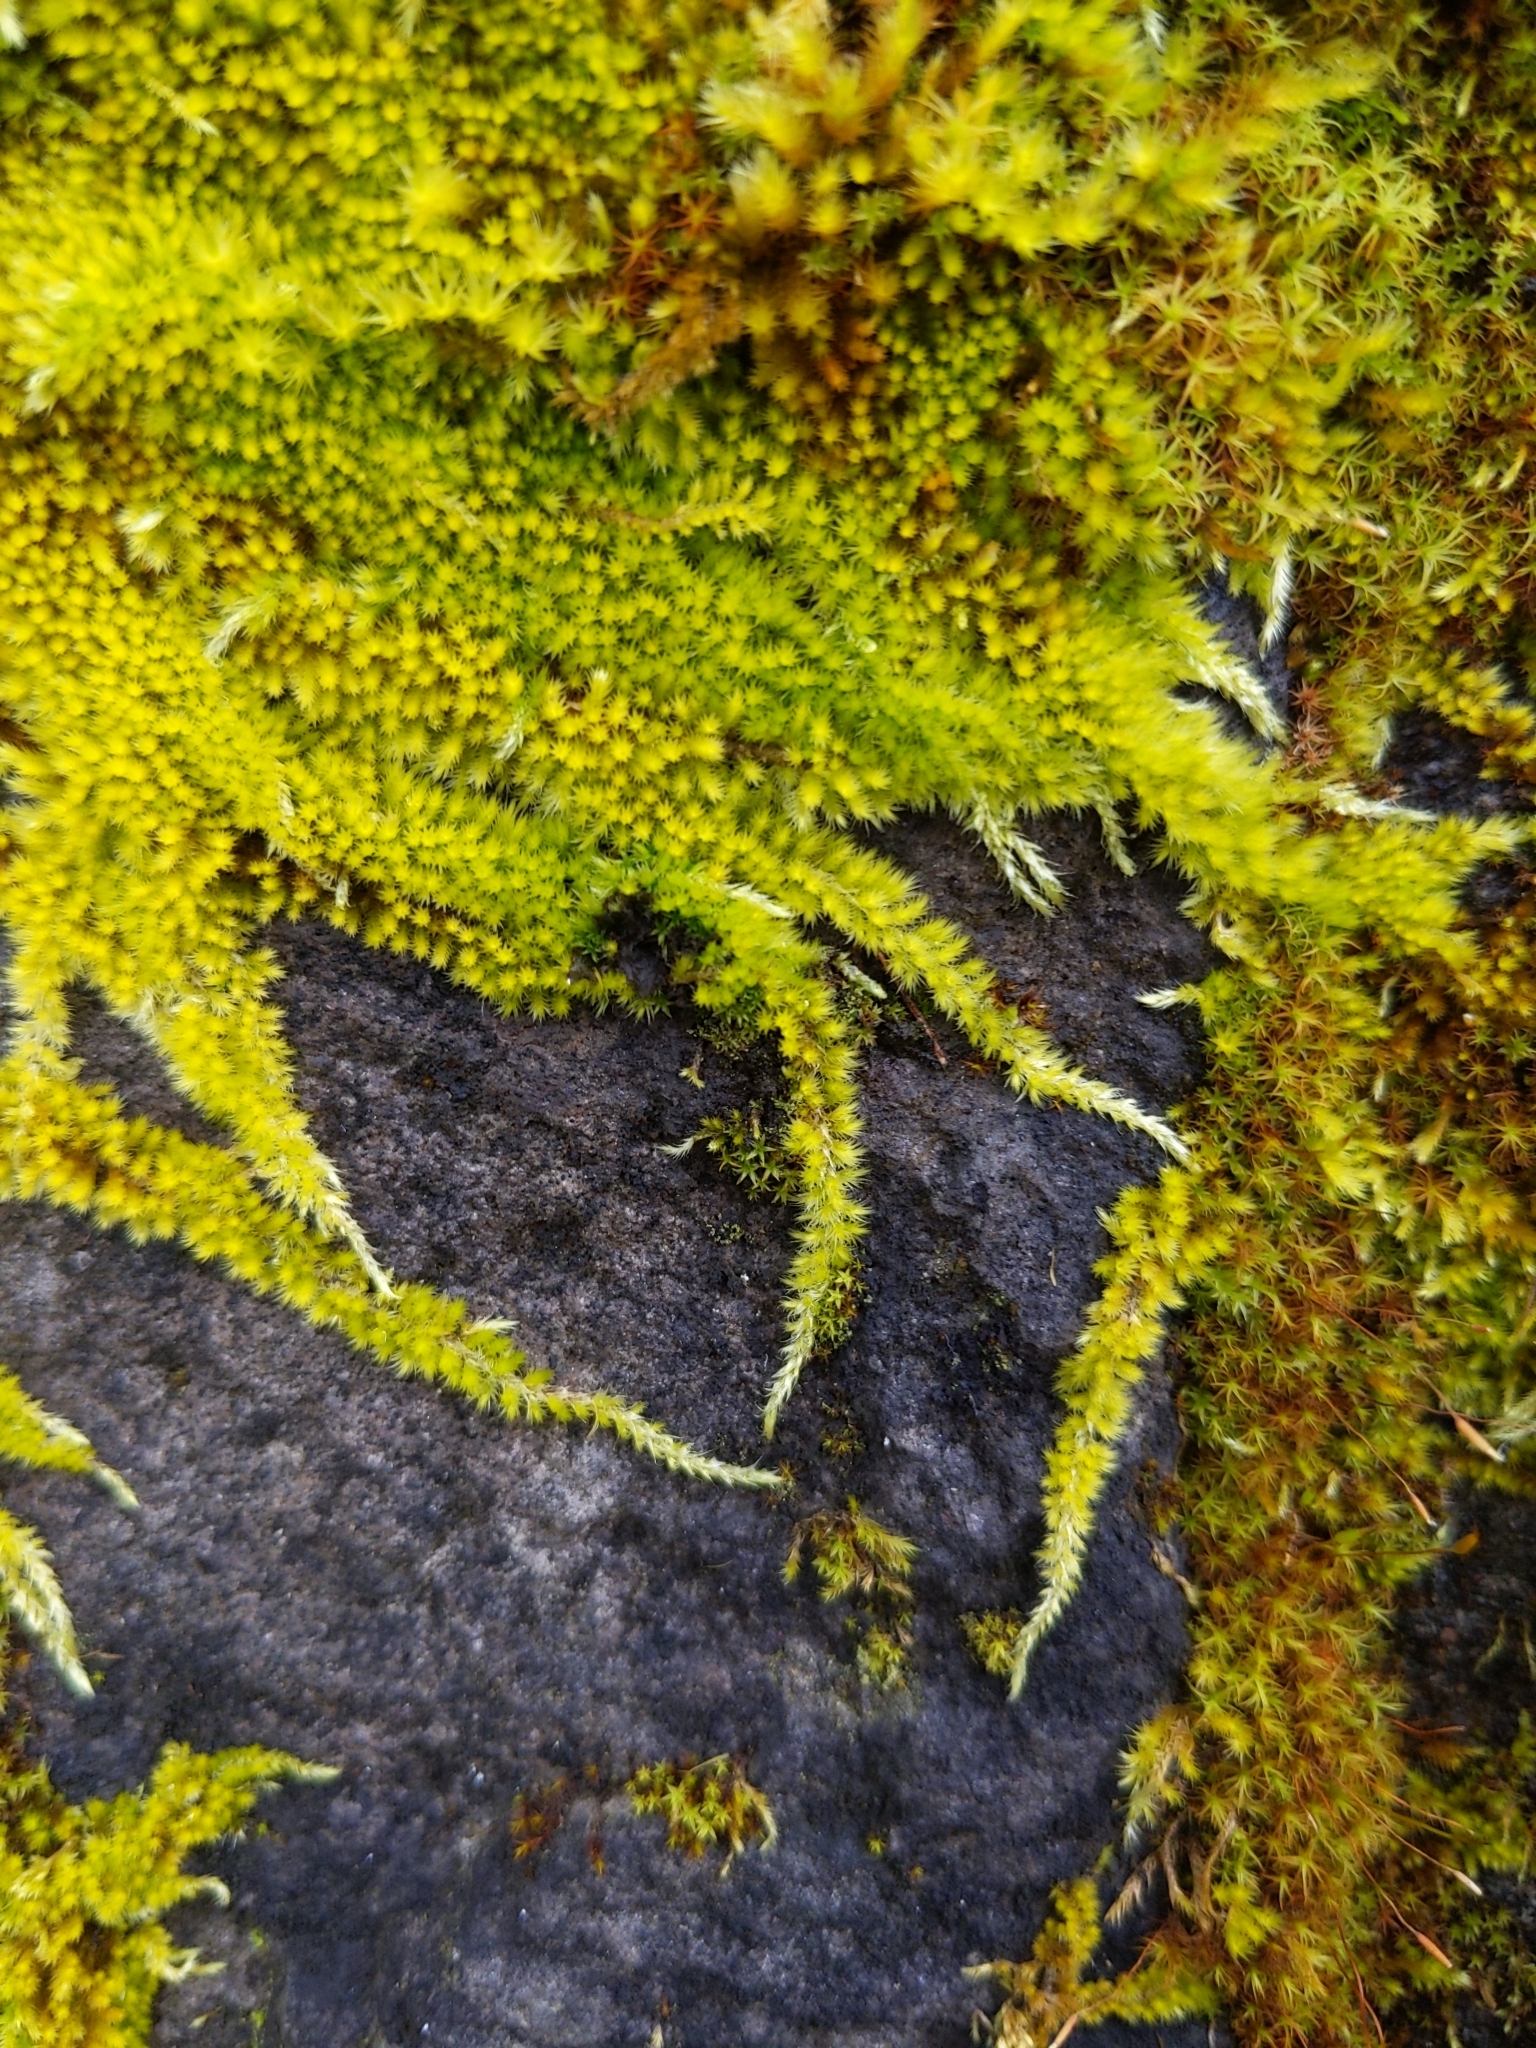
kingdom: Plantae
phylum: Bryophyta
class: Bryopsida
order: Hypnales
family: Brachytheciaceae
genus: Homalothecium
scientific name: Homalothecium nuttallii
